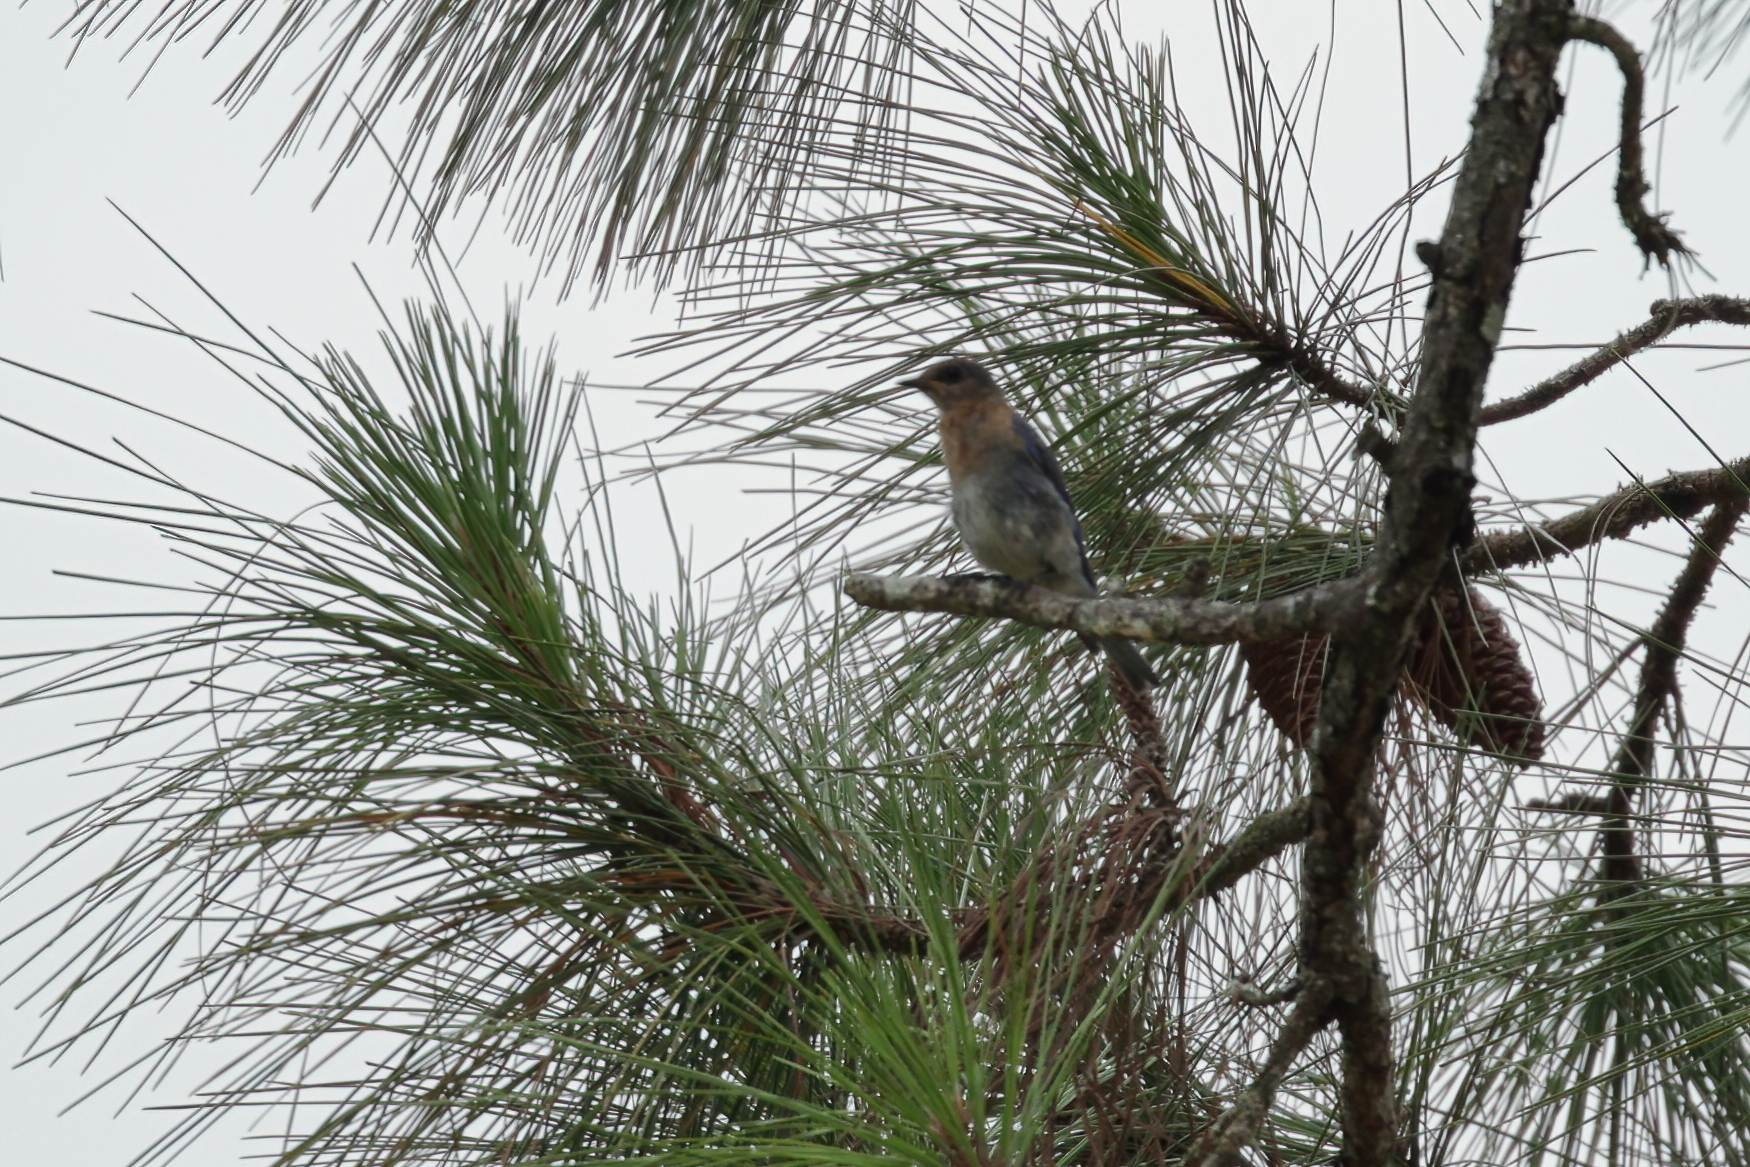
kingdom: Animalia
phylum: Chordata
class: Aves
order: Passeriformes
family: Turdidae
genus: Sialia
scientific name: Sialia sialis
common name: Eastern bluebird
